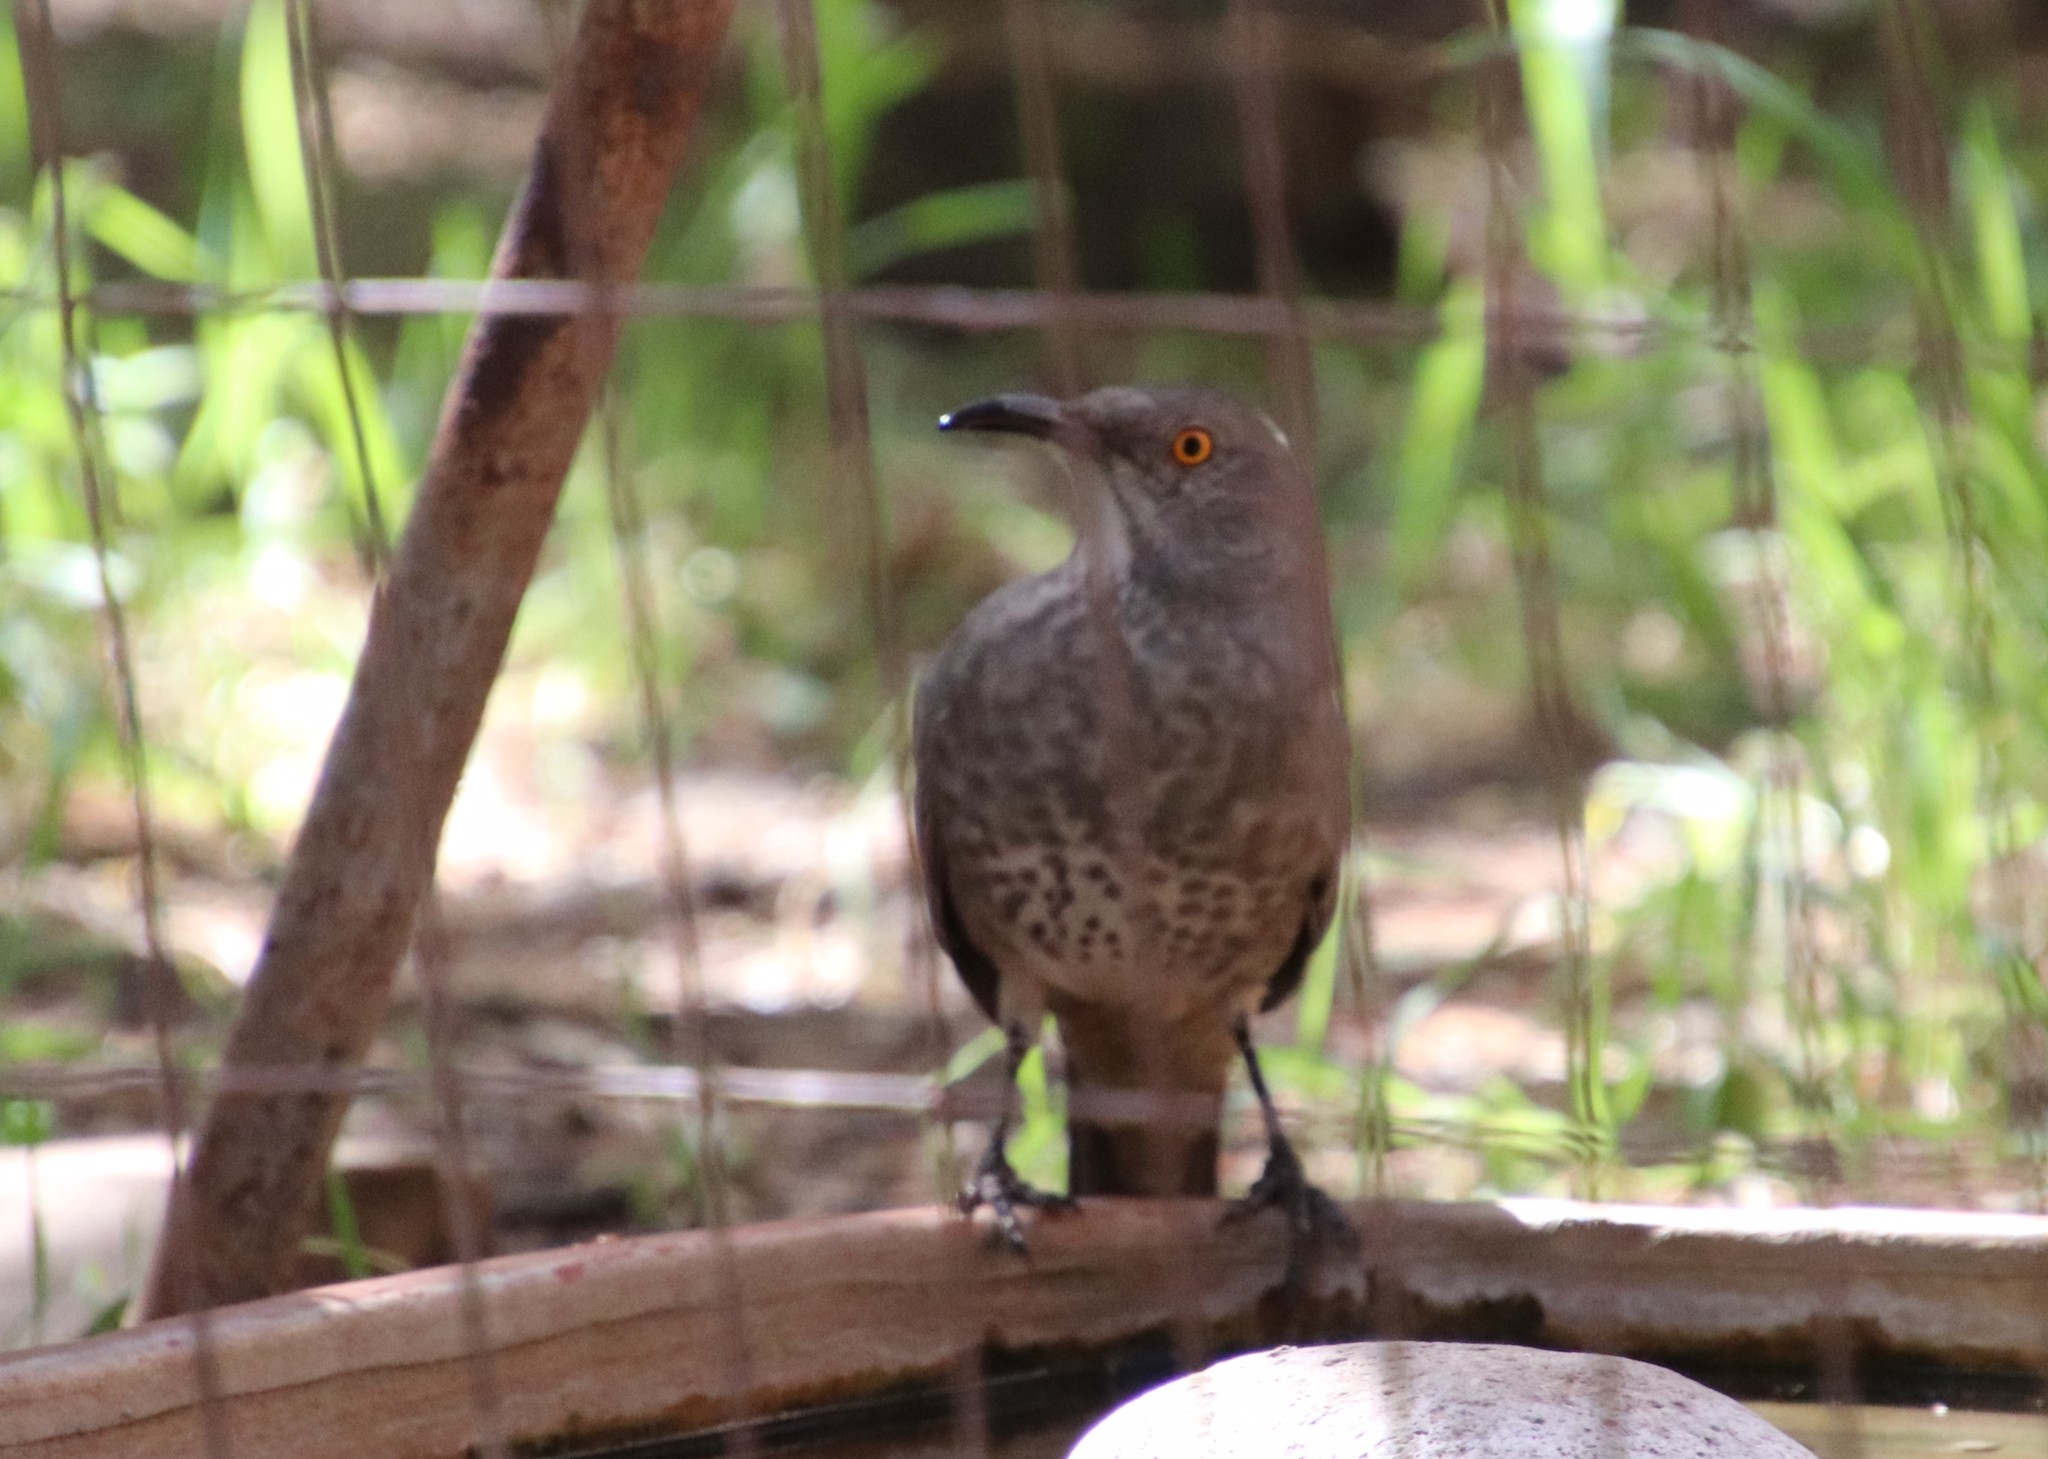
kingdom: Animalia
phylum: Chordata
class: Aves
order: Passeriformes
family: Mimidae
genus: Toxostoma
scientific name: Toxostoma curvirostre
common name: Curve-billed thrasher
